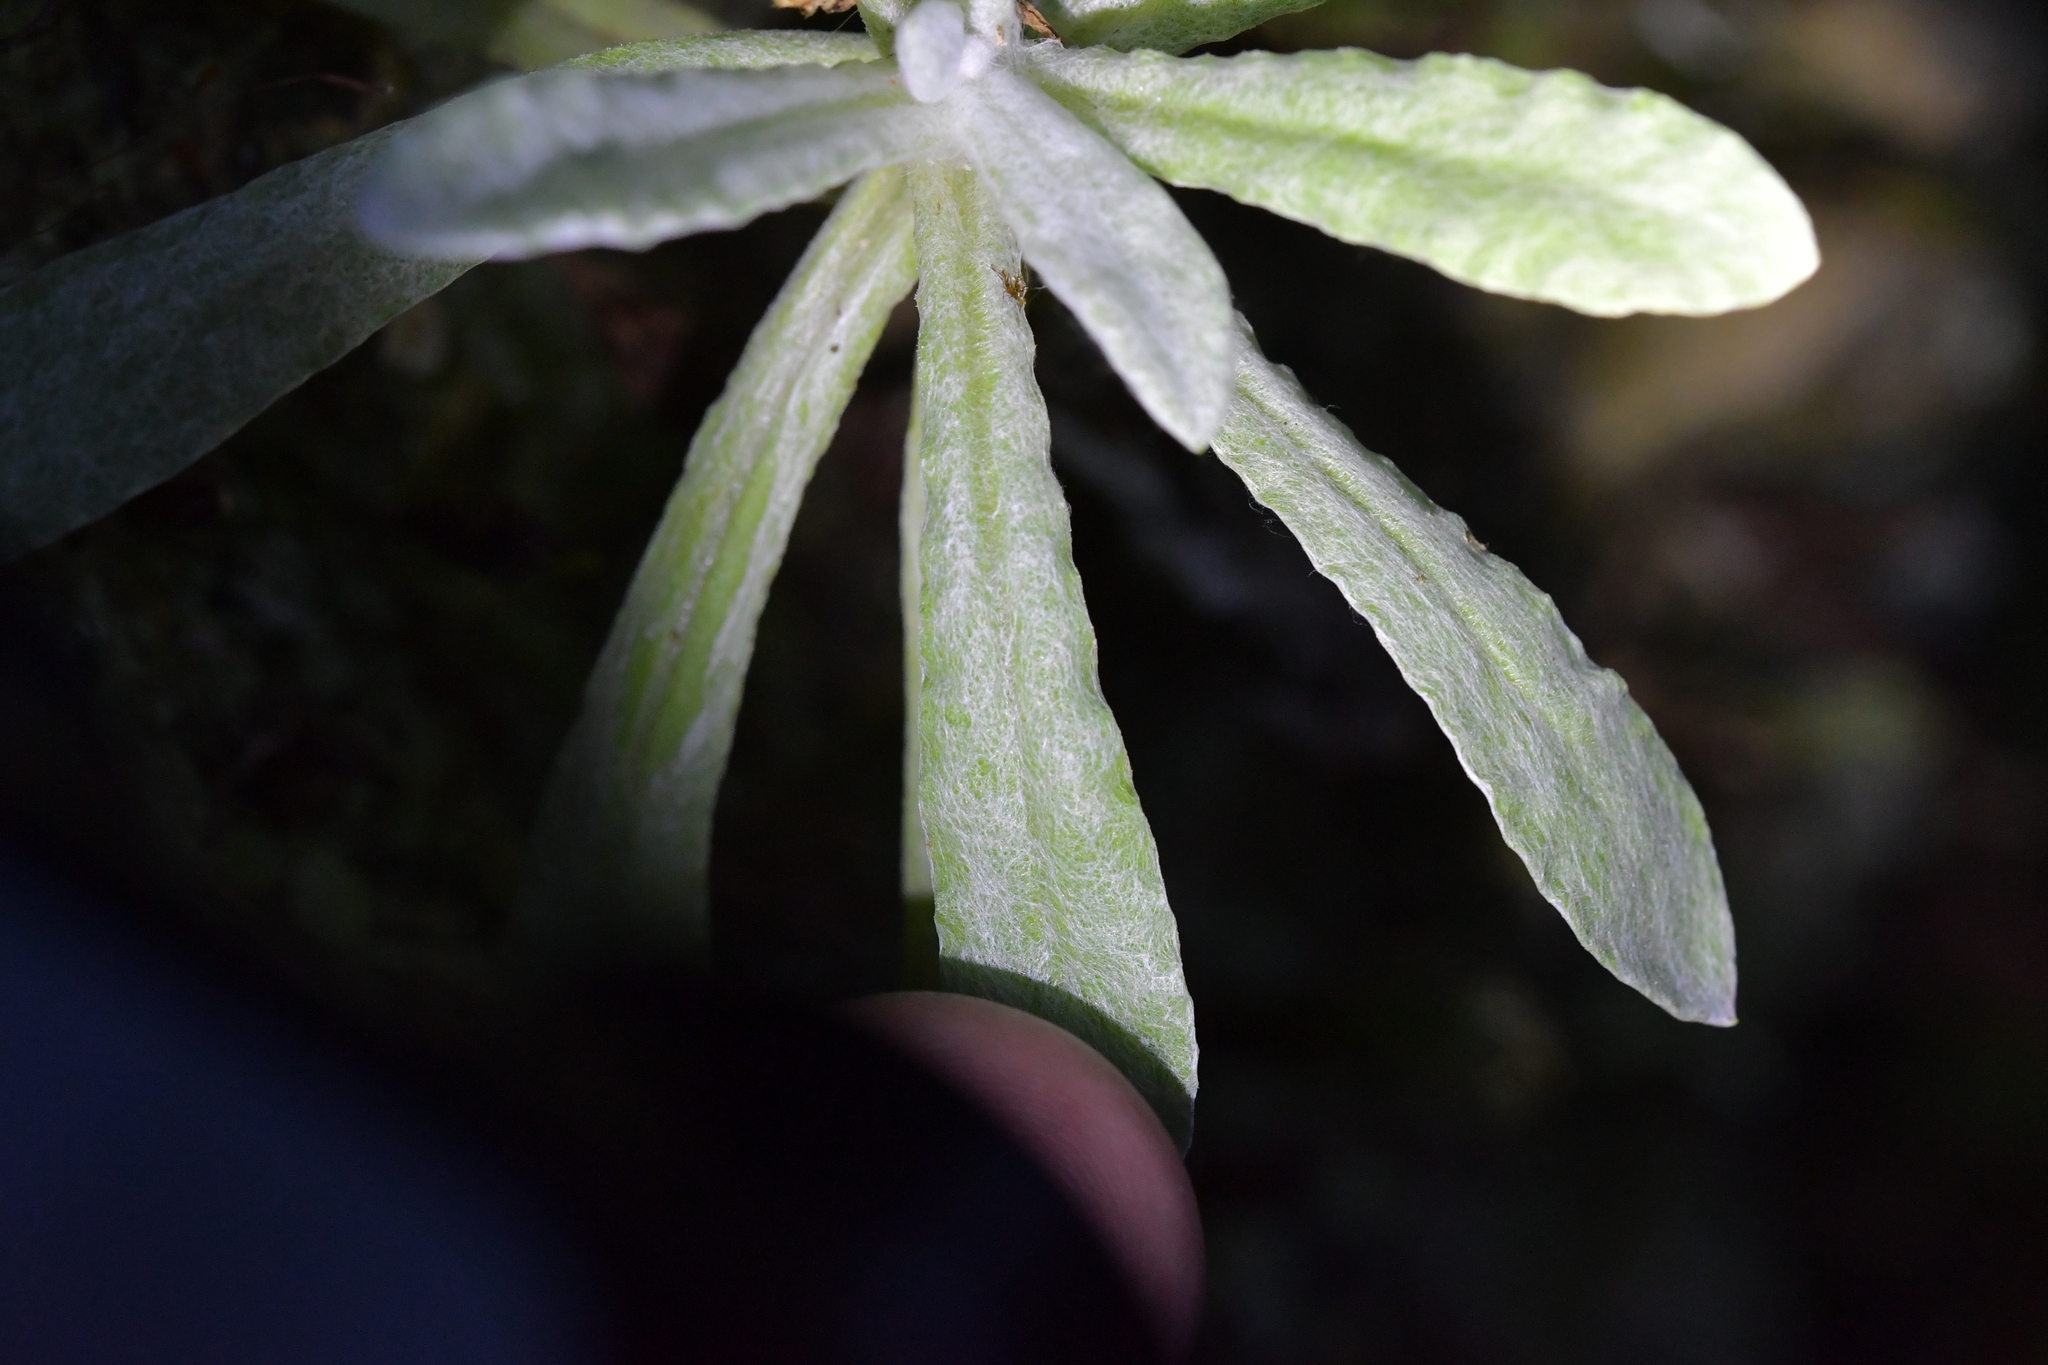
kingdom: Plantae
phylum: Tracheophyta
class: Magnoliopsida
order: Asterales
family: Asteraceae
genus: Helichrysum
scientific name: Helichrysum luteoalbum
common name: Daisy
